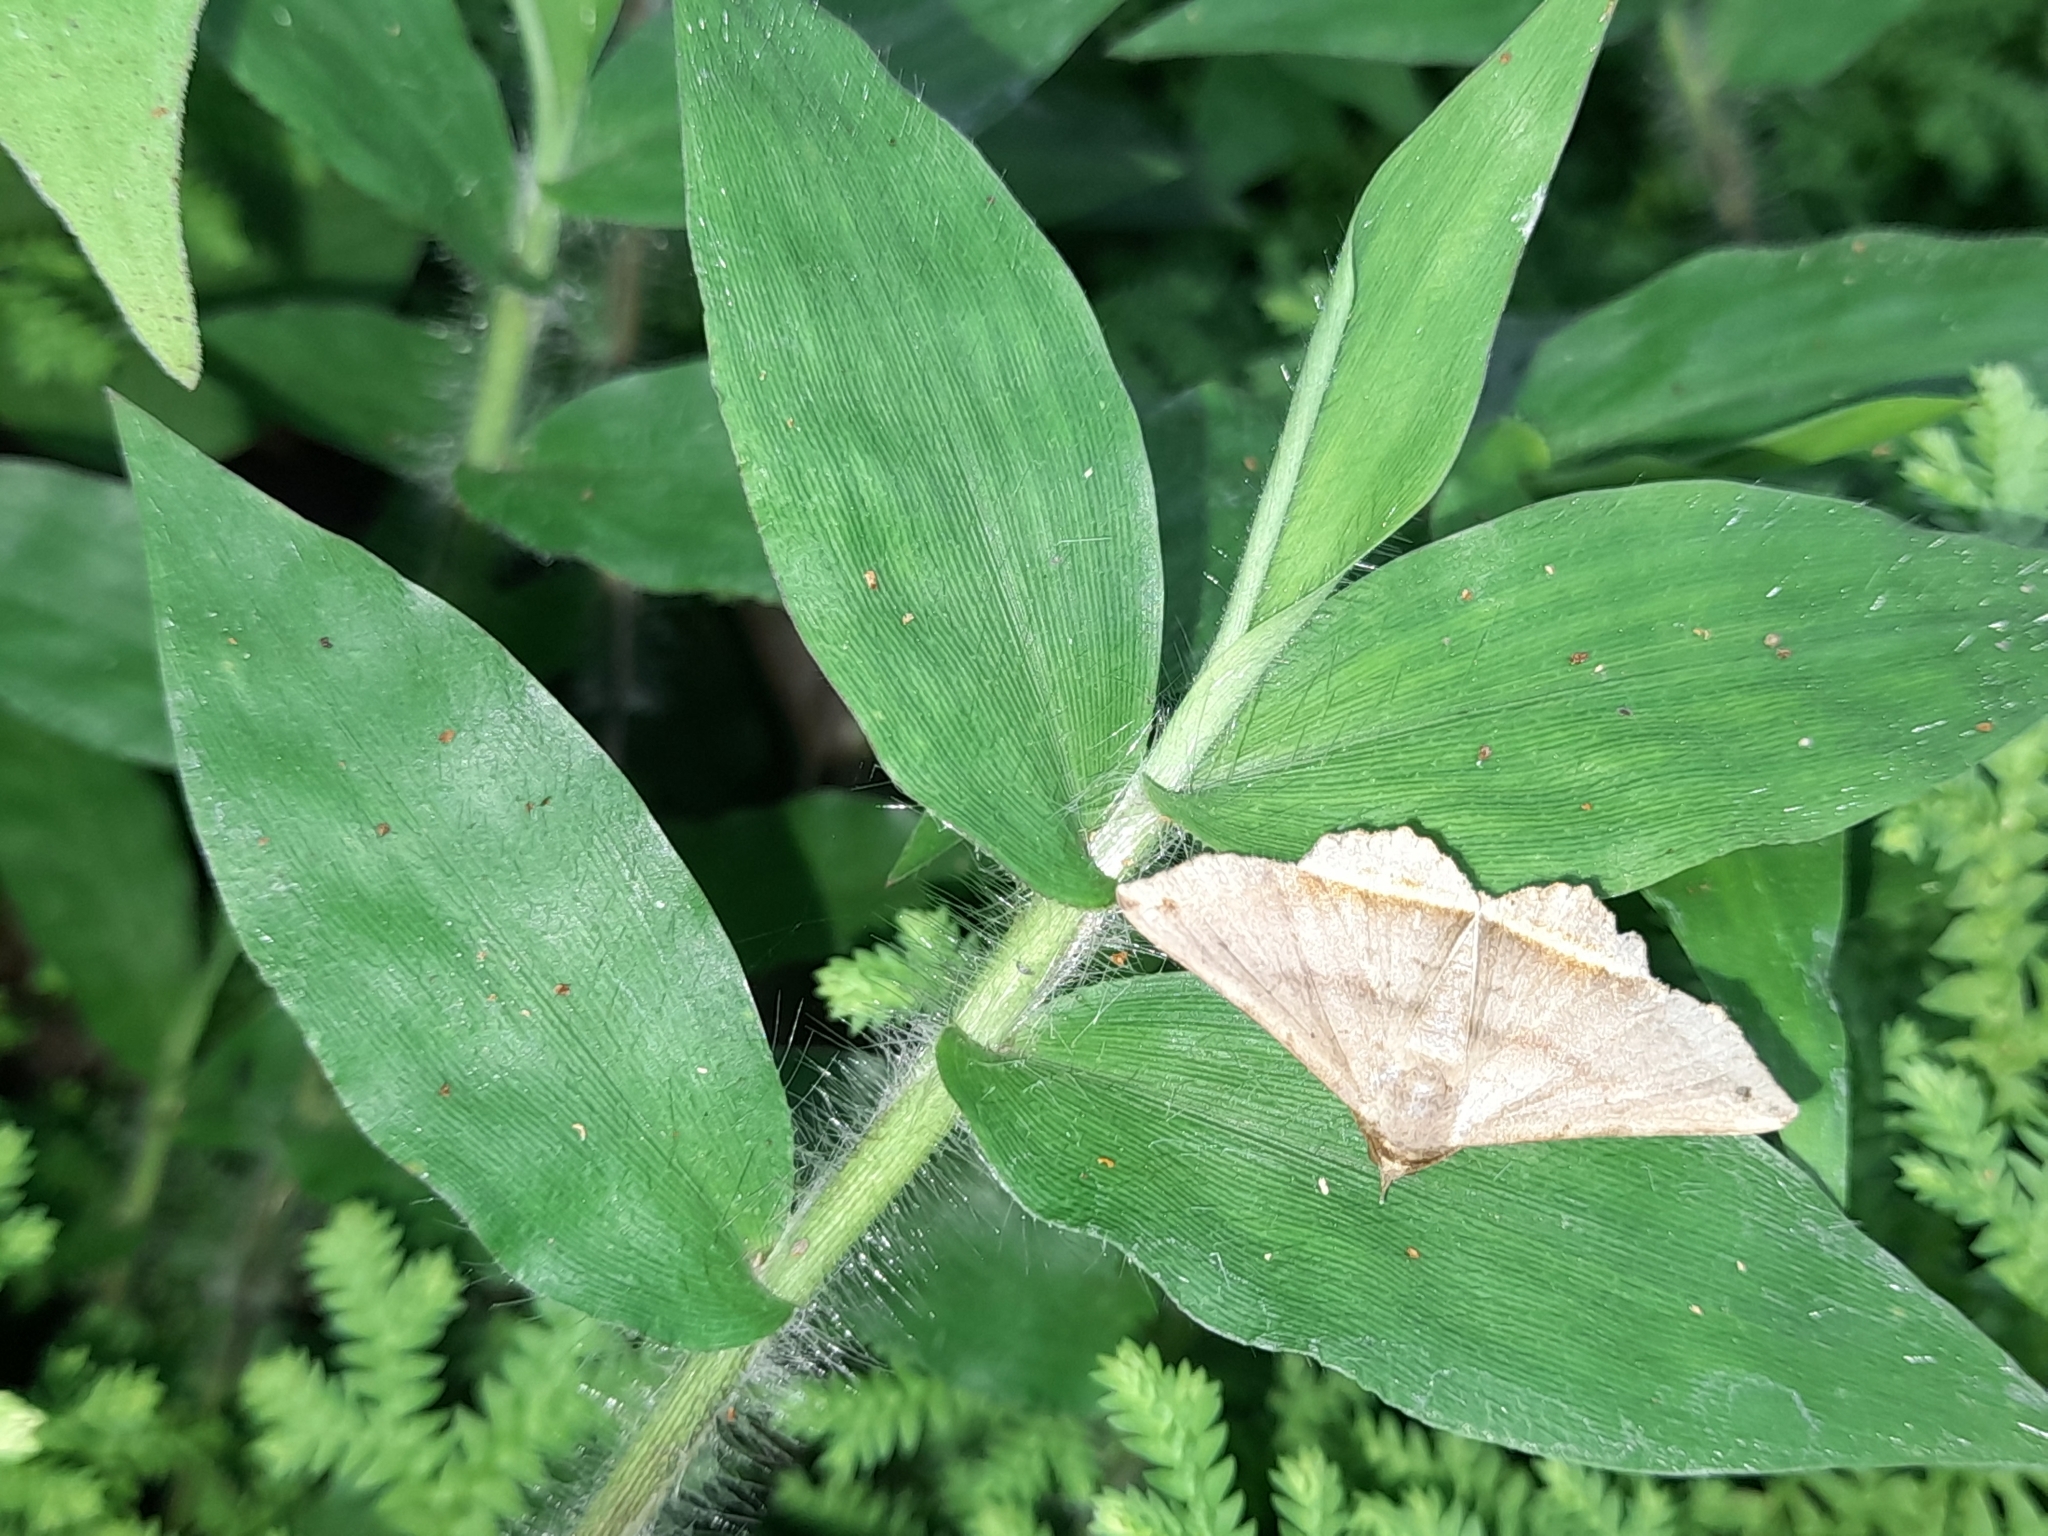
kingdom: Animalia
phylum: Arthropoda
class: Insecta
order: Lepidoptera
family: Erebidae
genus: Lesmone
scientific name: Lesmone formularis
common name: Lesmone moth
